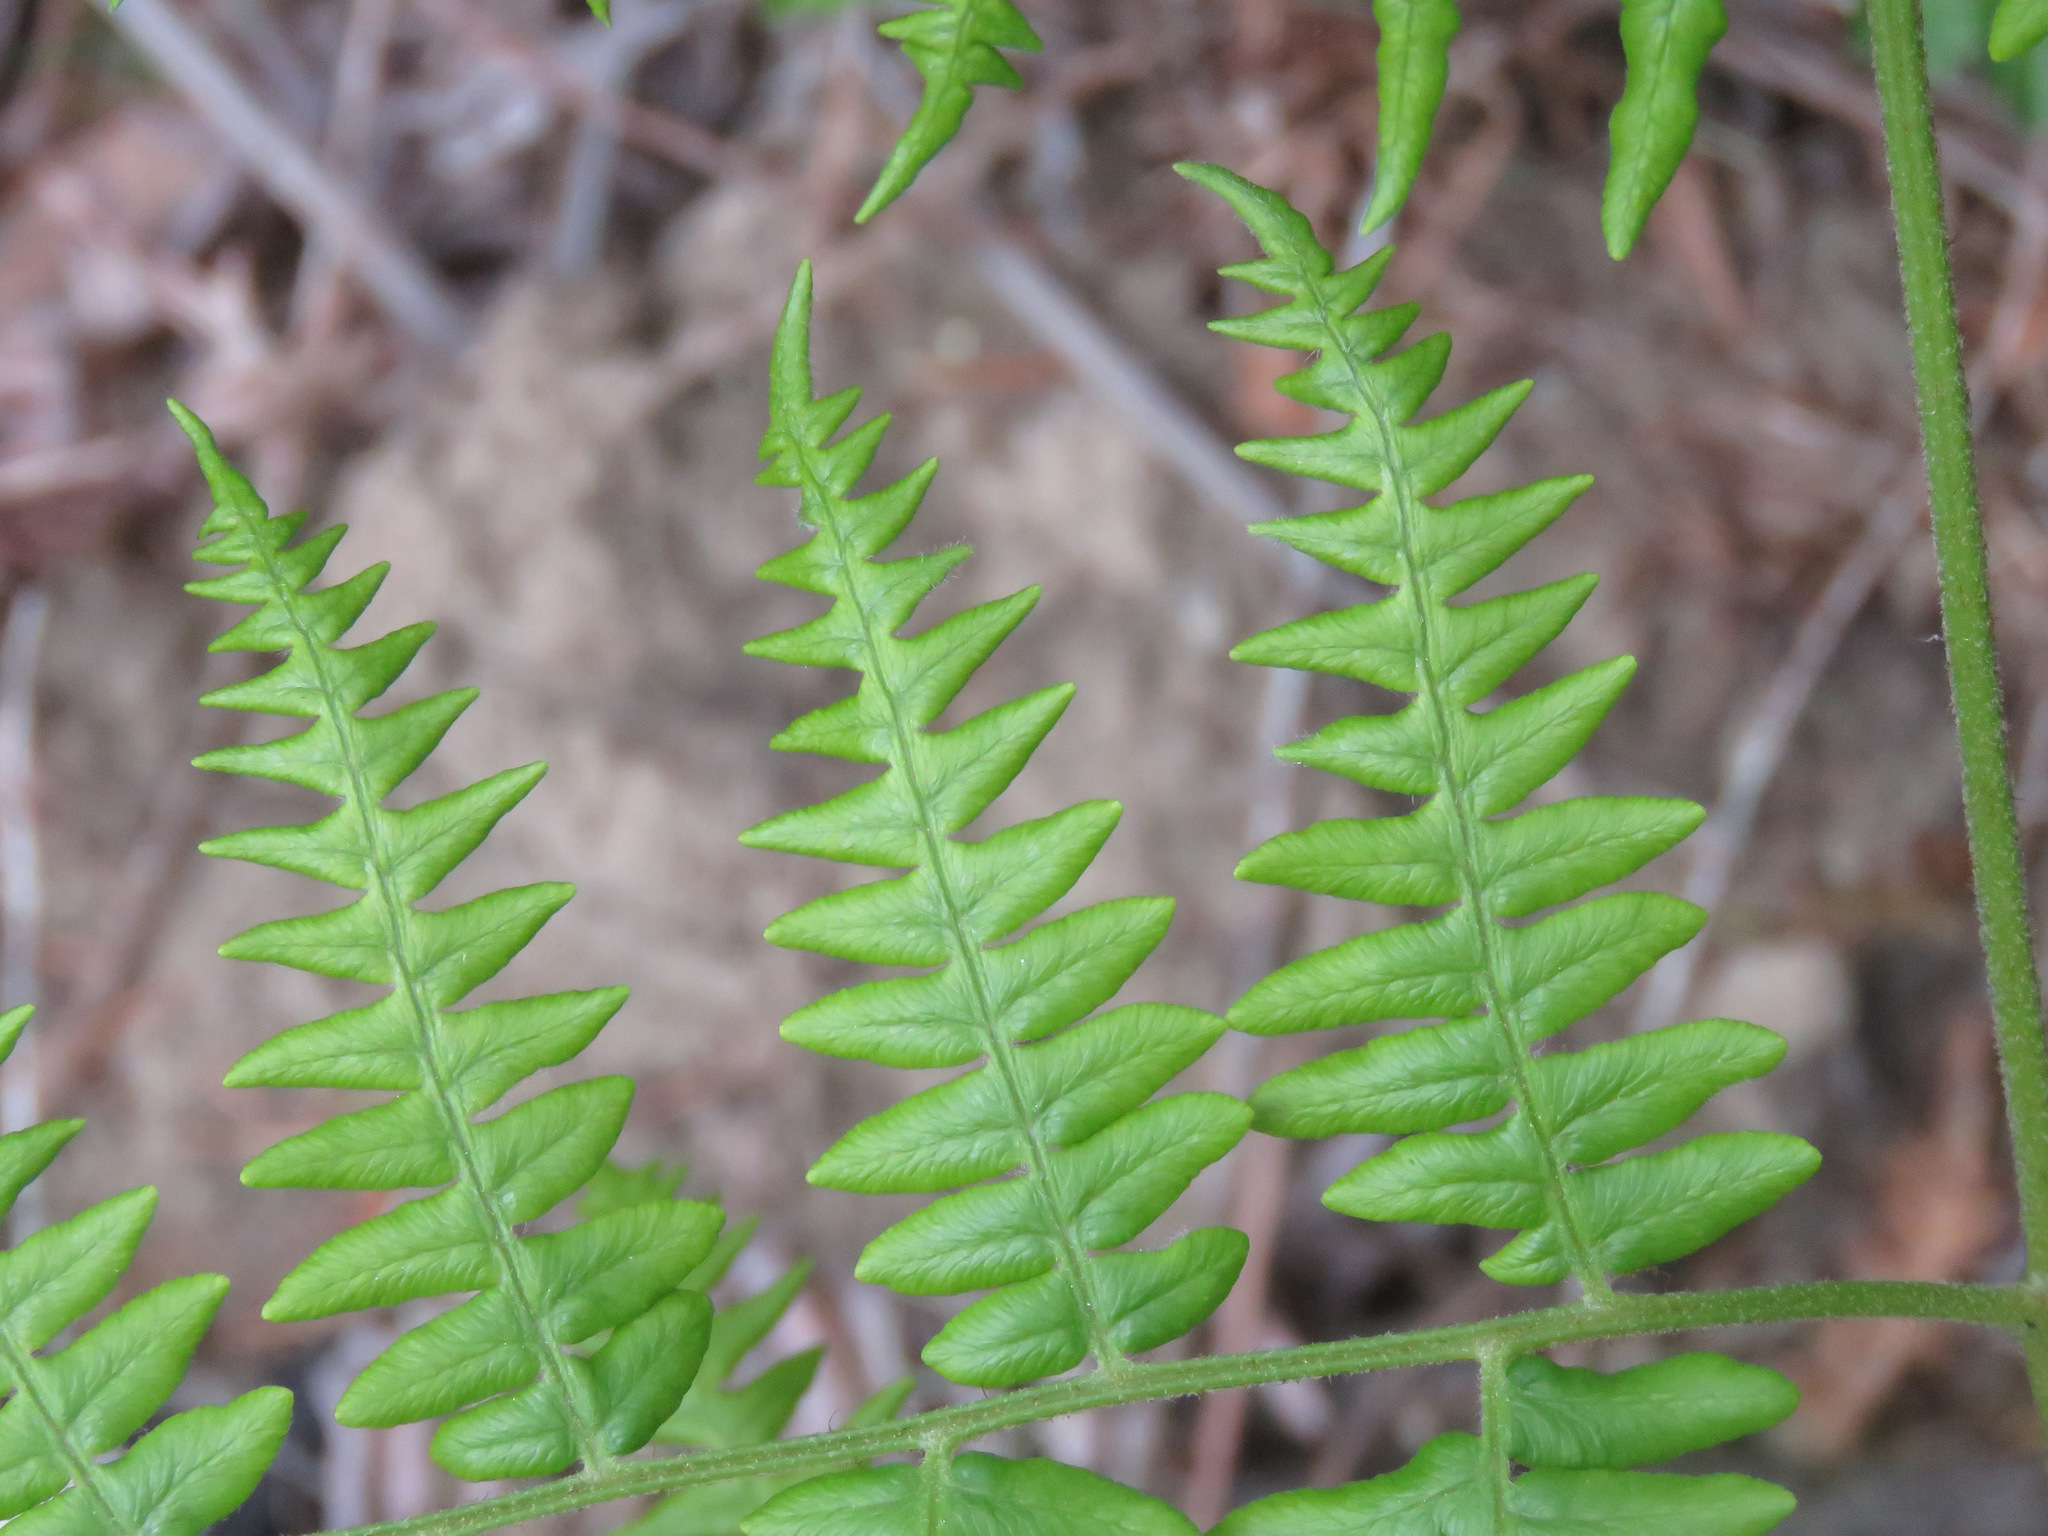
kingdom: Plantae
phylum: Tracheophyta
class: Polypodiopsida
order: Polypodiales
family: Dennstaedtiaceae
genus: Pteridium
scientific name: Pteridium aquilinum
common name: Bracken
